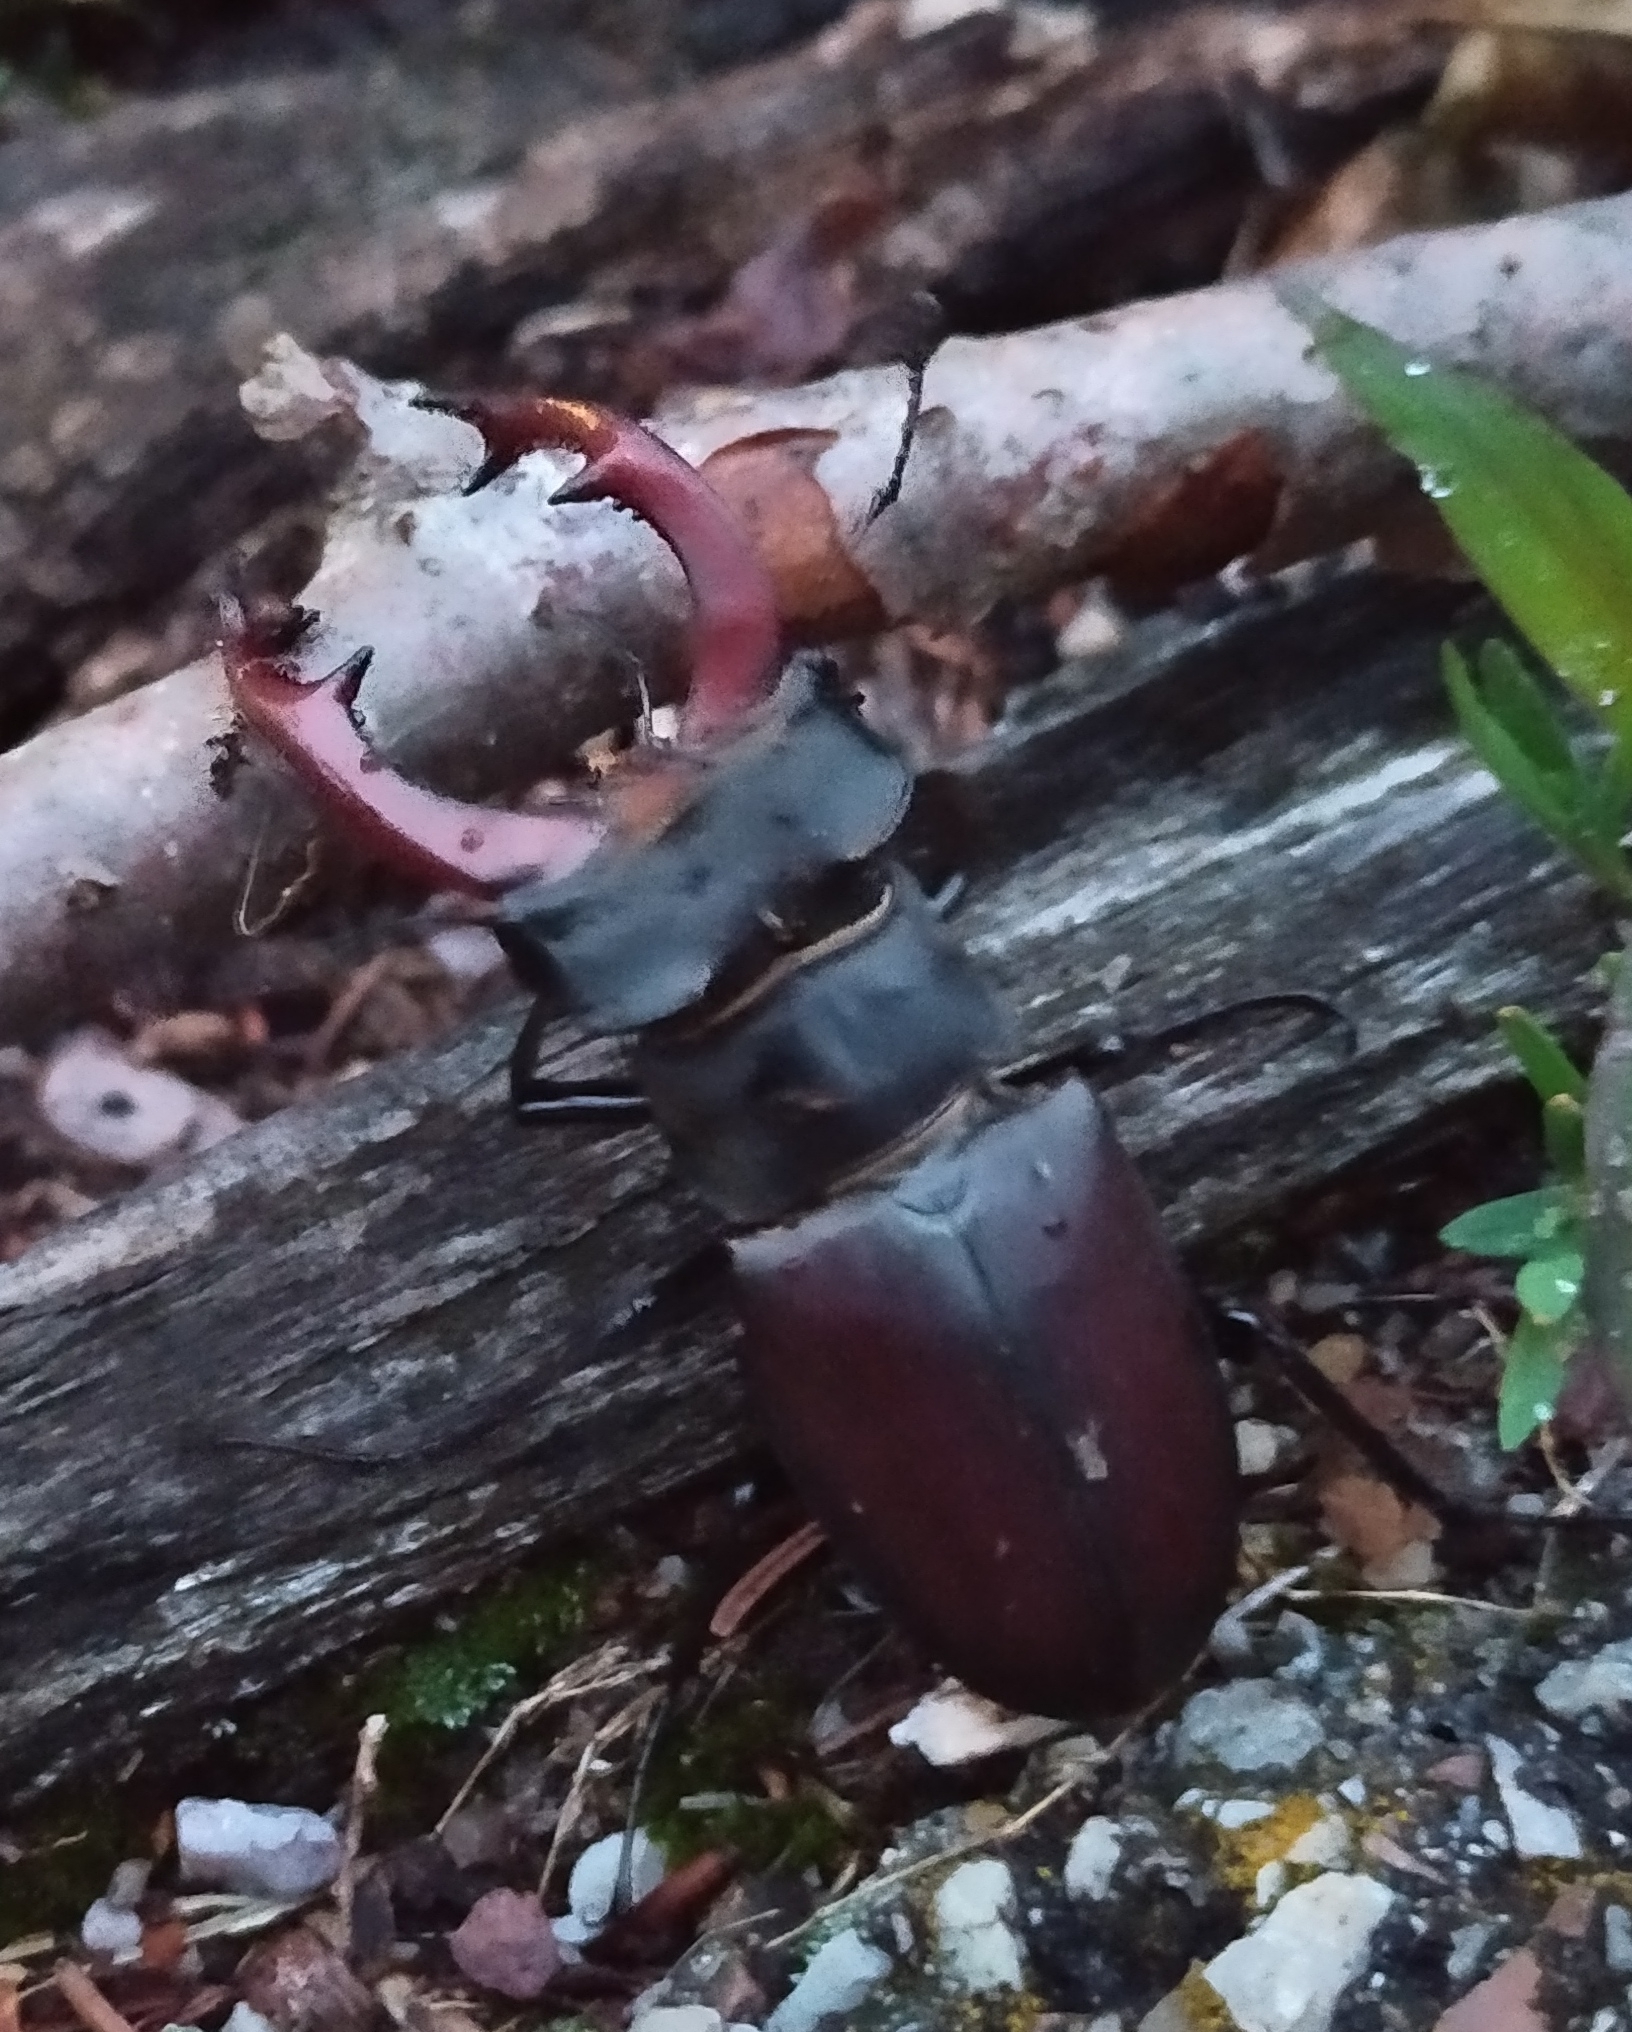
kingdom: Animalia
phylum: Arthropoda
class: Insecta
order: Coleoptera
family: Lucanidae
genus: Lucanus
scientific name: Lucanus cervus
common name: Stag beetle
